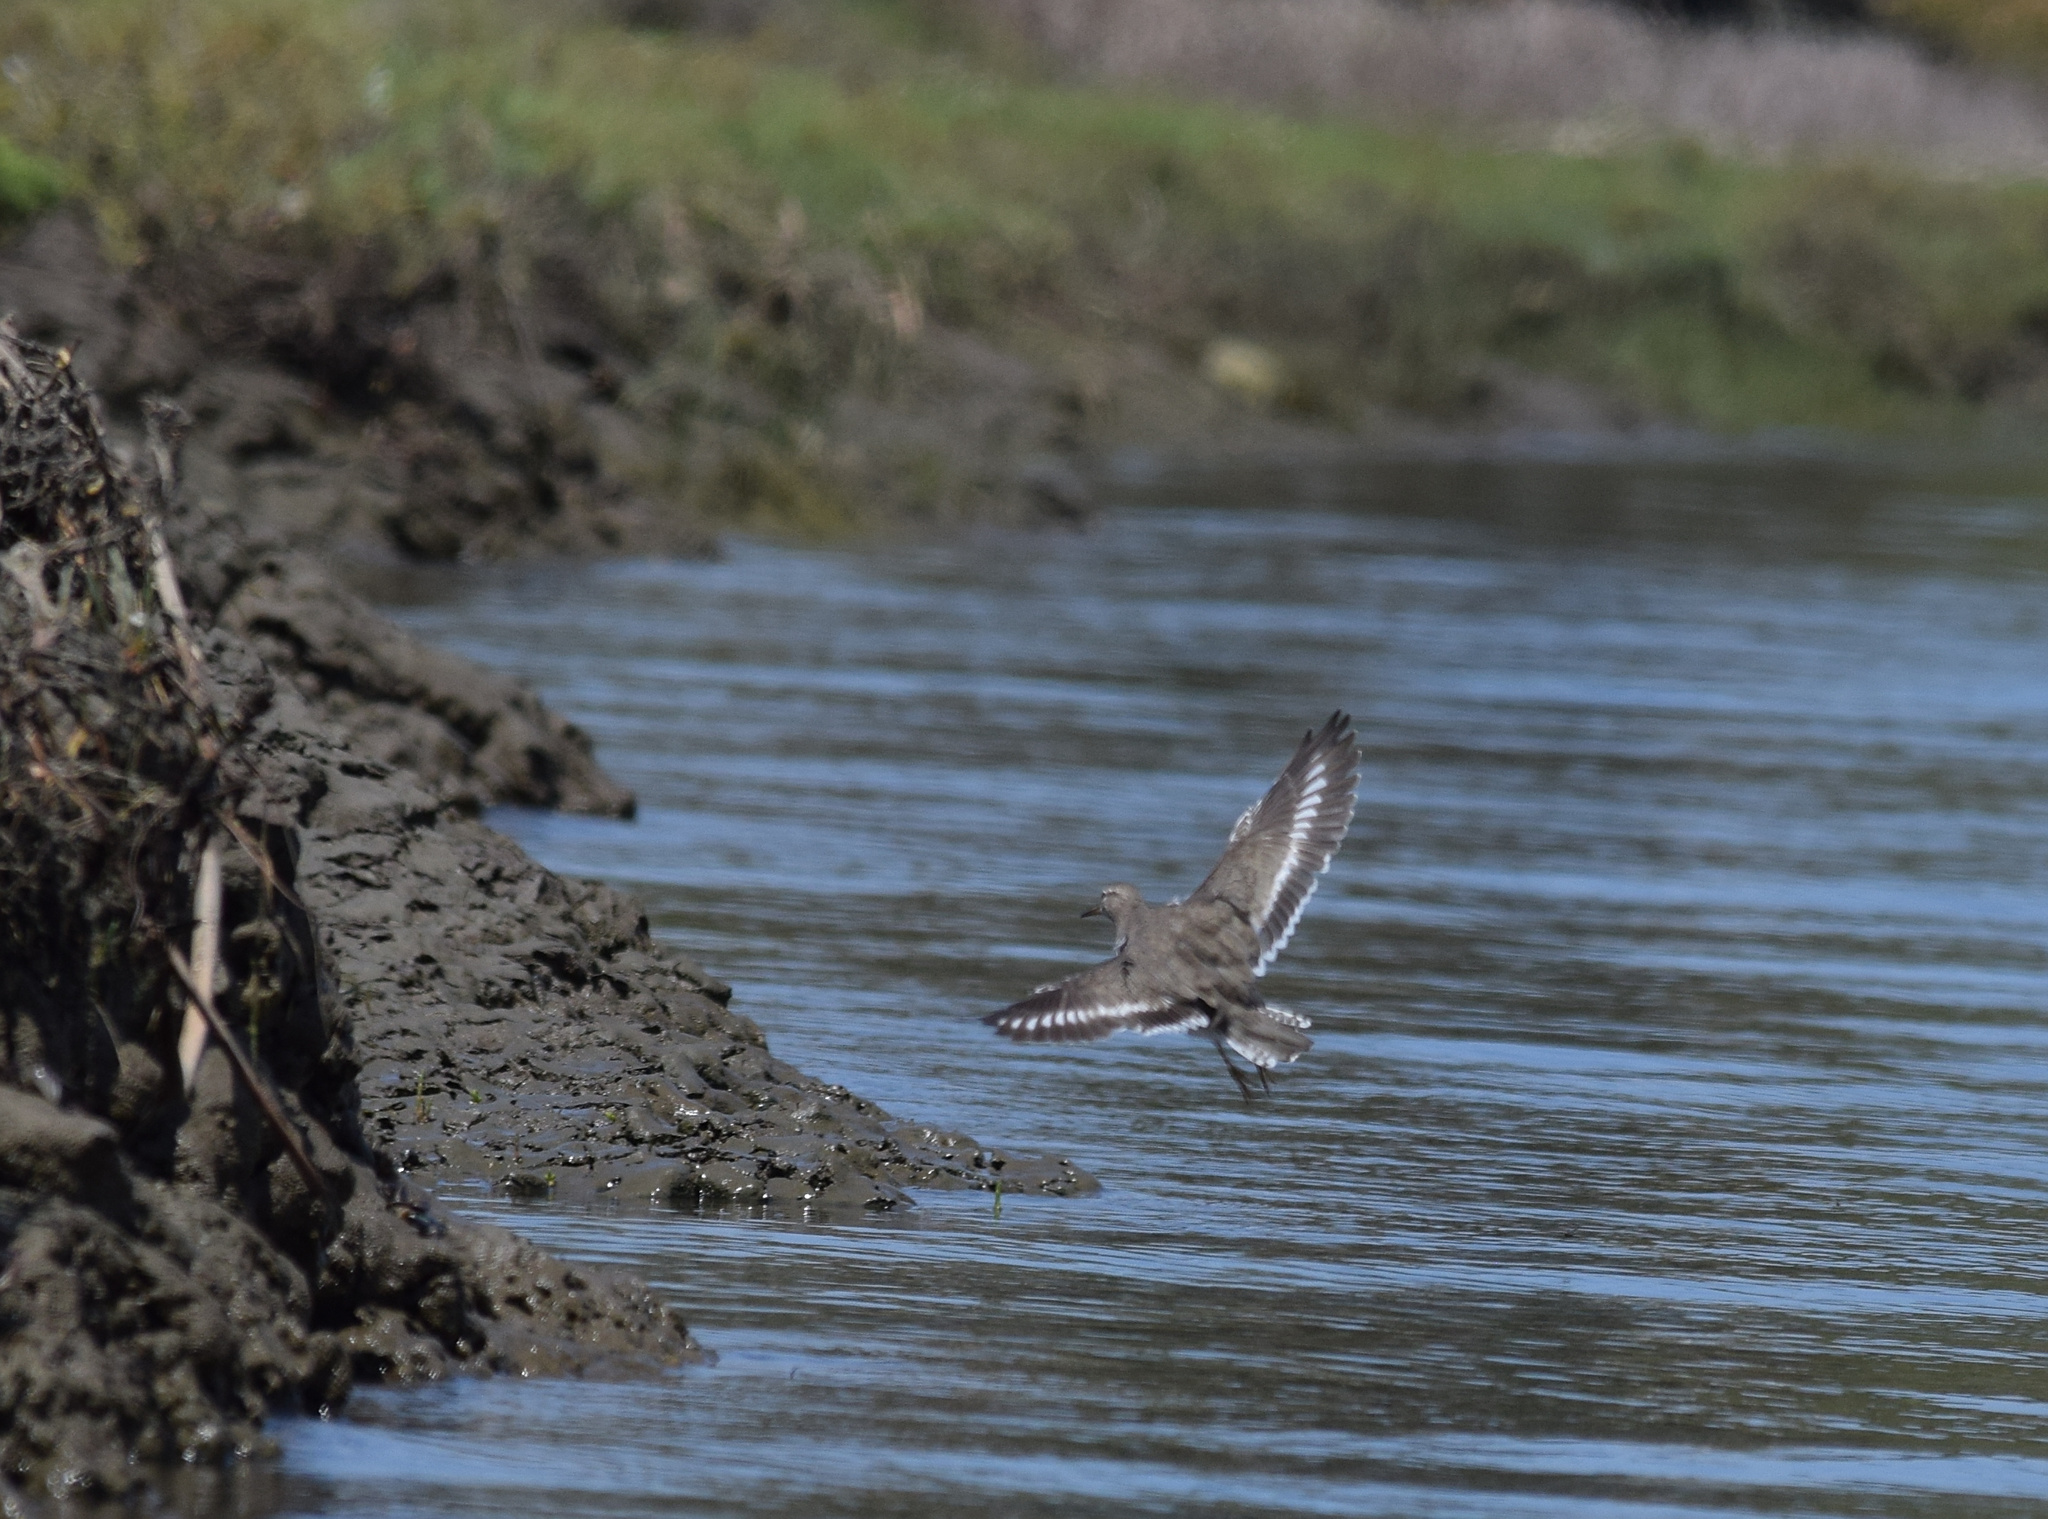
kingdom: Animalia
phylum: Chordata
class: Aves
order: Charadriiformes
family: Scolopacidae
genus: Actitis
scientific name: Actitis macularius
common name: Spotted sandpiper
